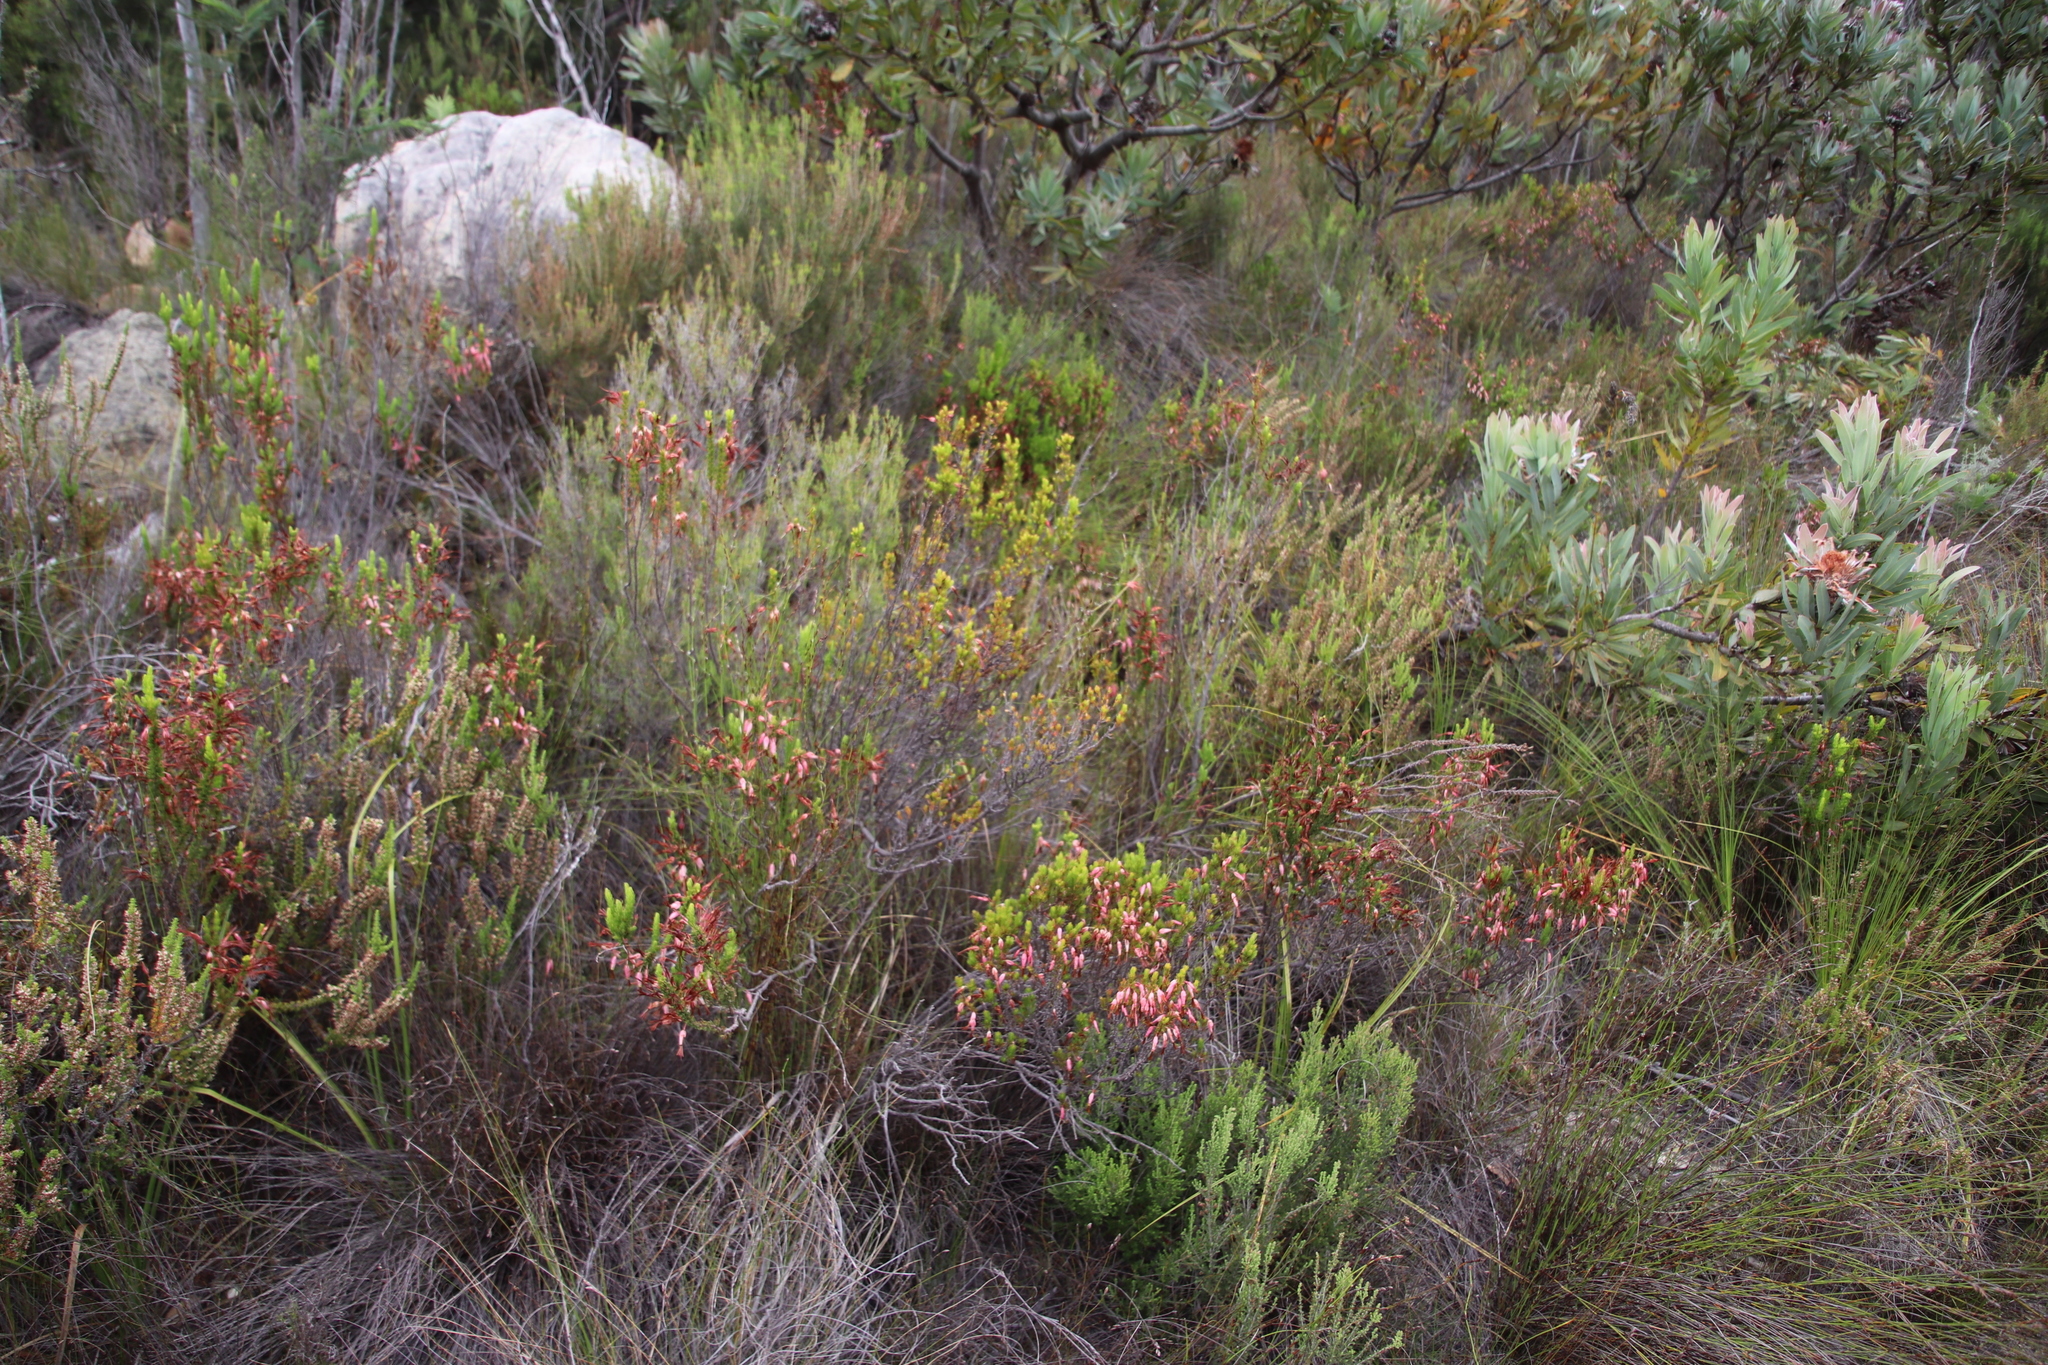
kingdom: Plantae
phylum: Tracheophyta
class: Magnoliopsida
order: Ericales
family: Ericaceae
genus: Erica
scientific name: Erica plukenetii
